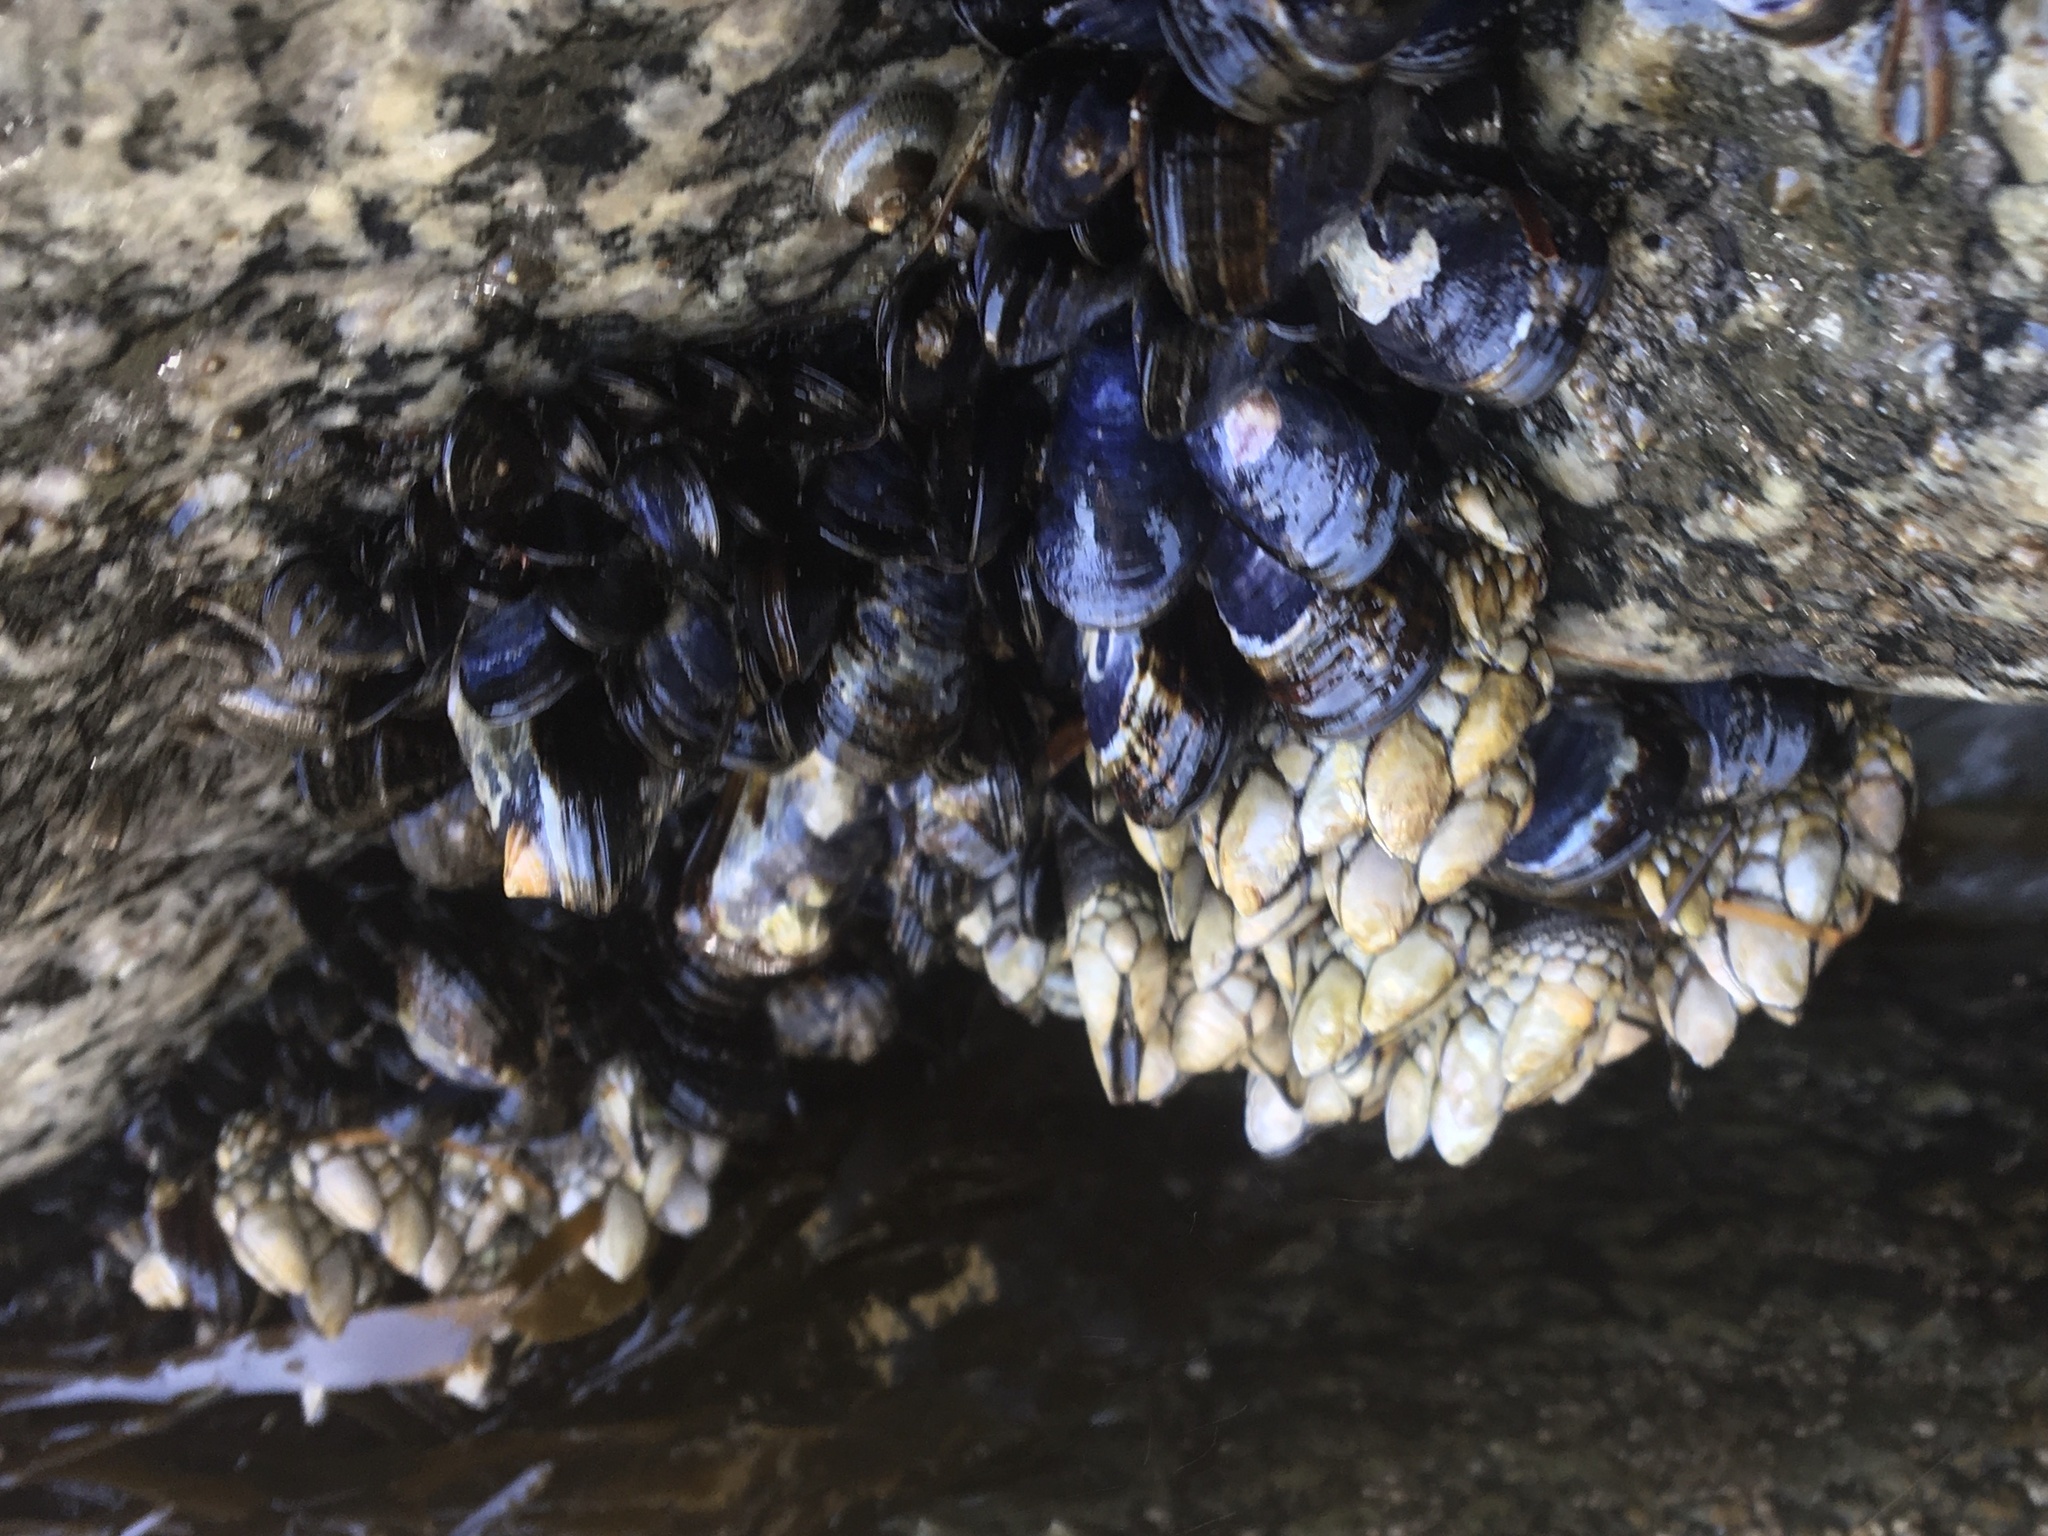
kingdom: Animalia
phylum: Mollusca
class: Bivalvia
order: Mytilida
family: Mytilidae
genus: Mytilus
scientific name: Mytilus californianus
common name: California mussel
